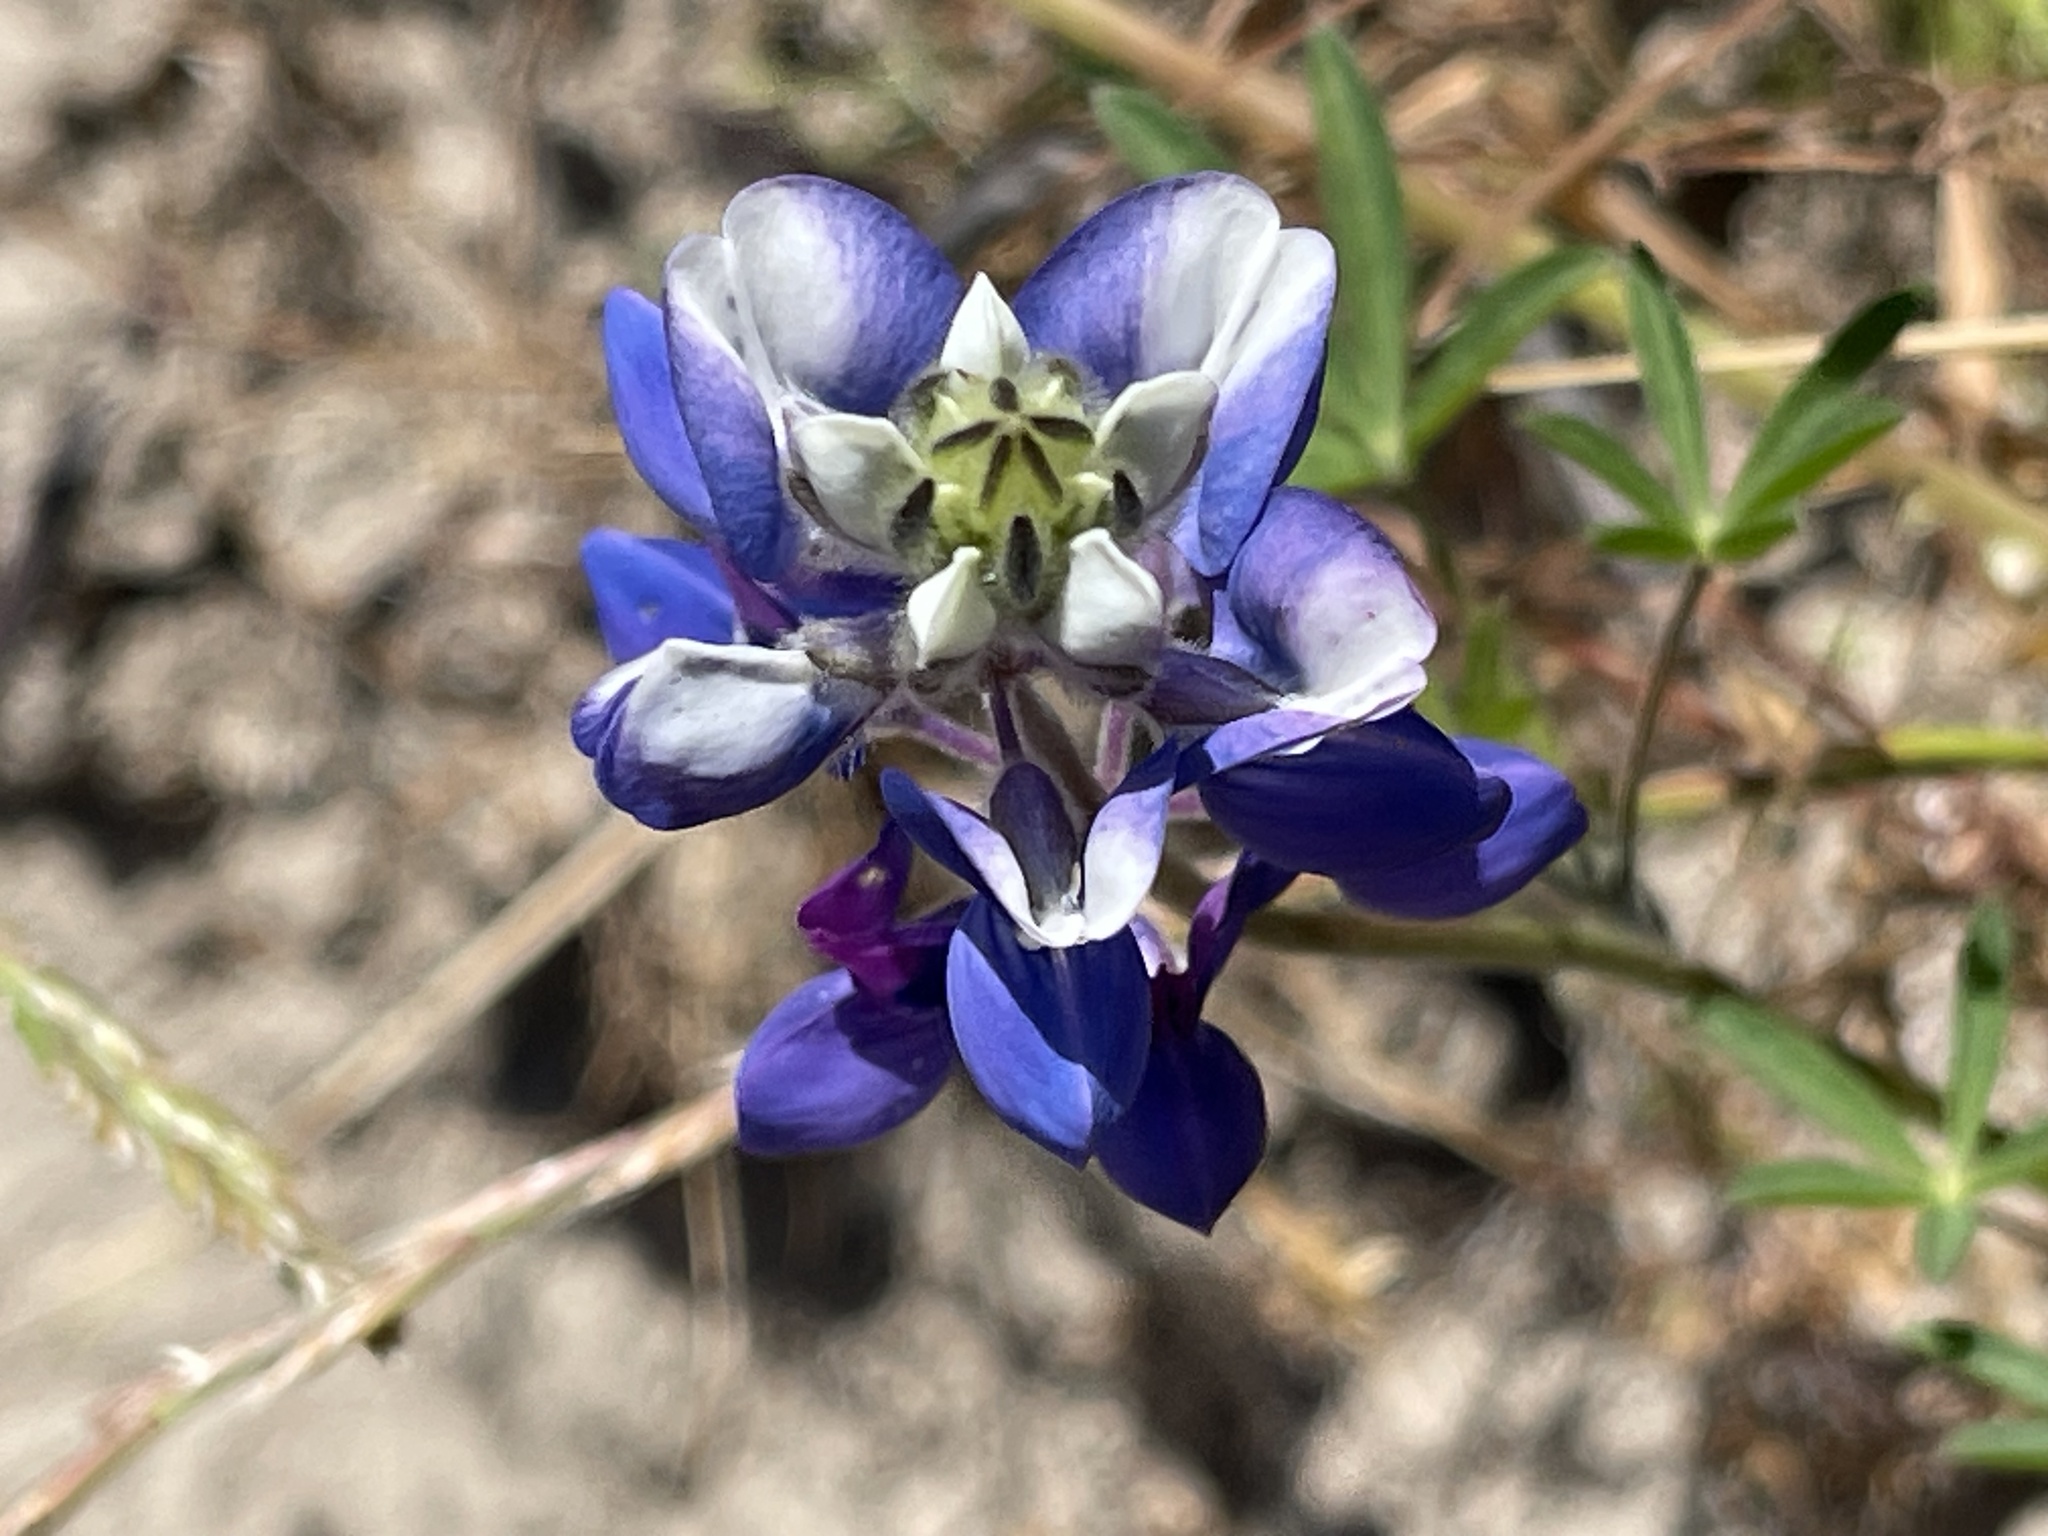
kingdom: Plantae
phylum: Tracheophyta
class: Magnoliopsida
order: Fabales
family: Fabaceae
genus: Lupinus
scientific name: Lupinus nanus
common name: Orean blue lupin
